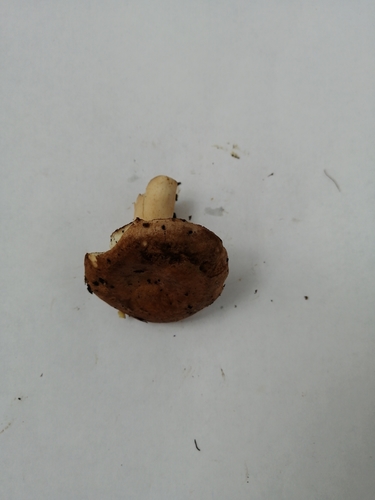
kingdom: Fungi
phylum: Basidiomycota
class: Agaricomycetes
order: Russulales
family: Russulaceae
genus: Lactarius
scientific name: Lactarius trivialis
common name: Tacked milkcap
